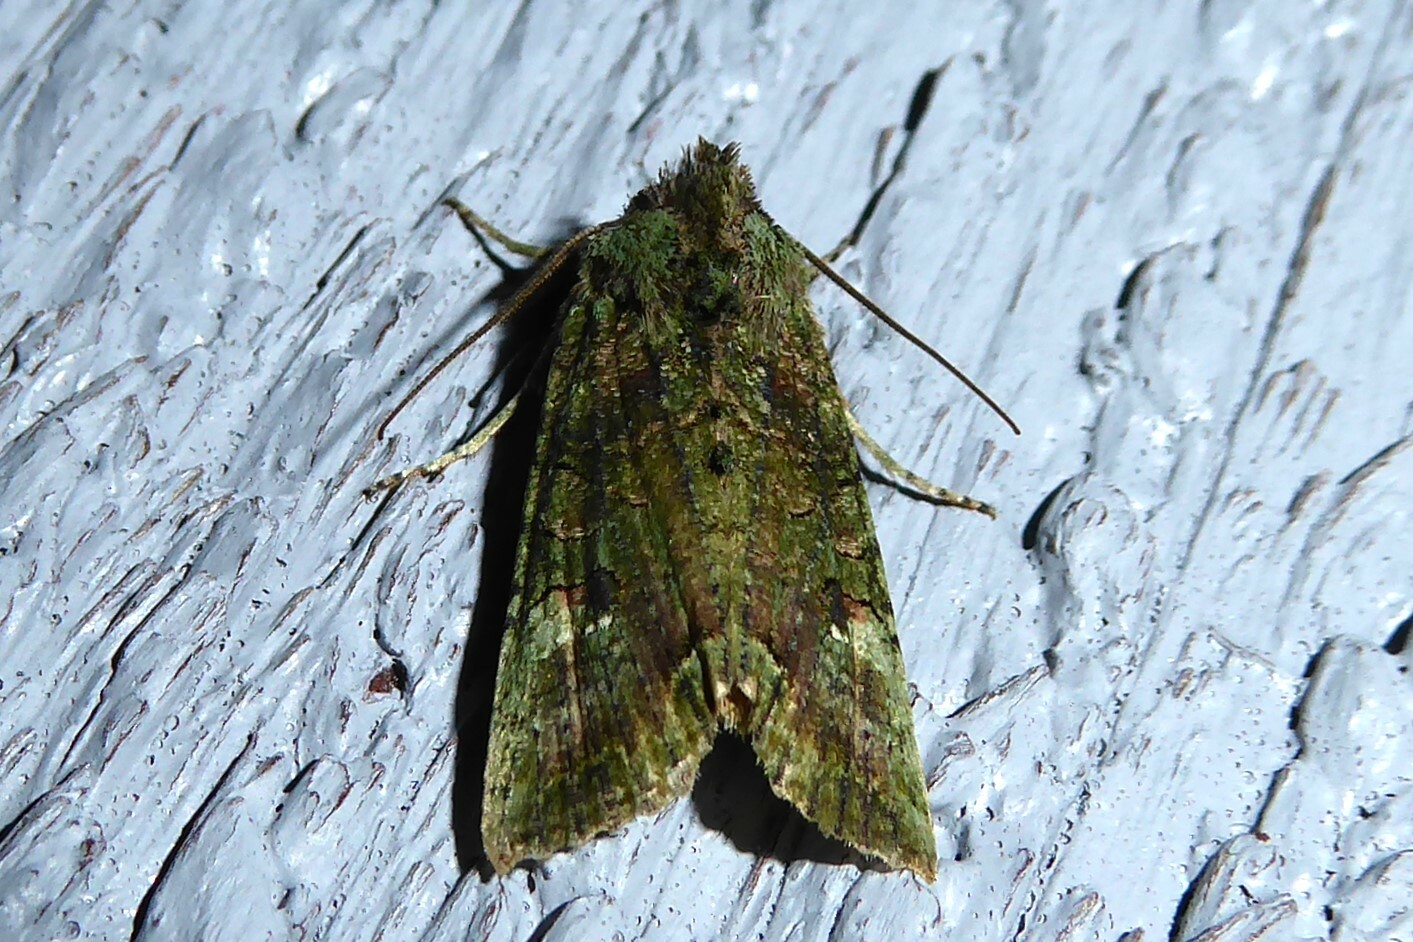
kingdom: Animalia
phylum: Arthropoda
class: Insecta
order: Lepidoptera
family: Noctuidae
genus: Meterana
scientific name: Meterana levis
